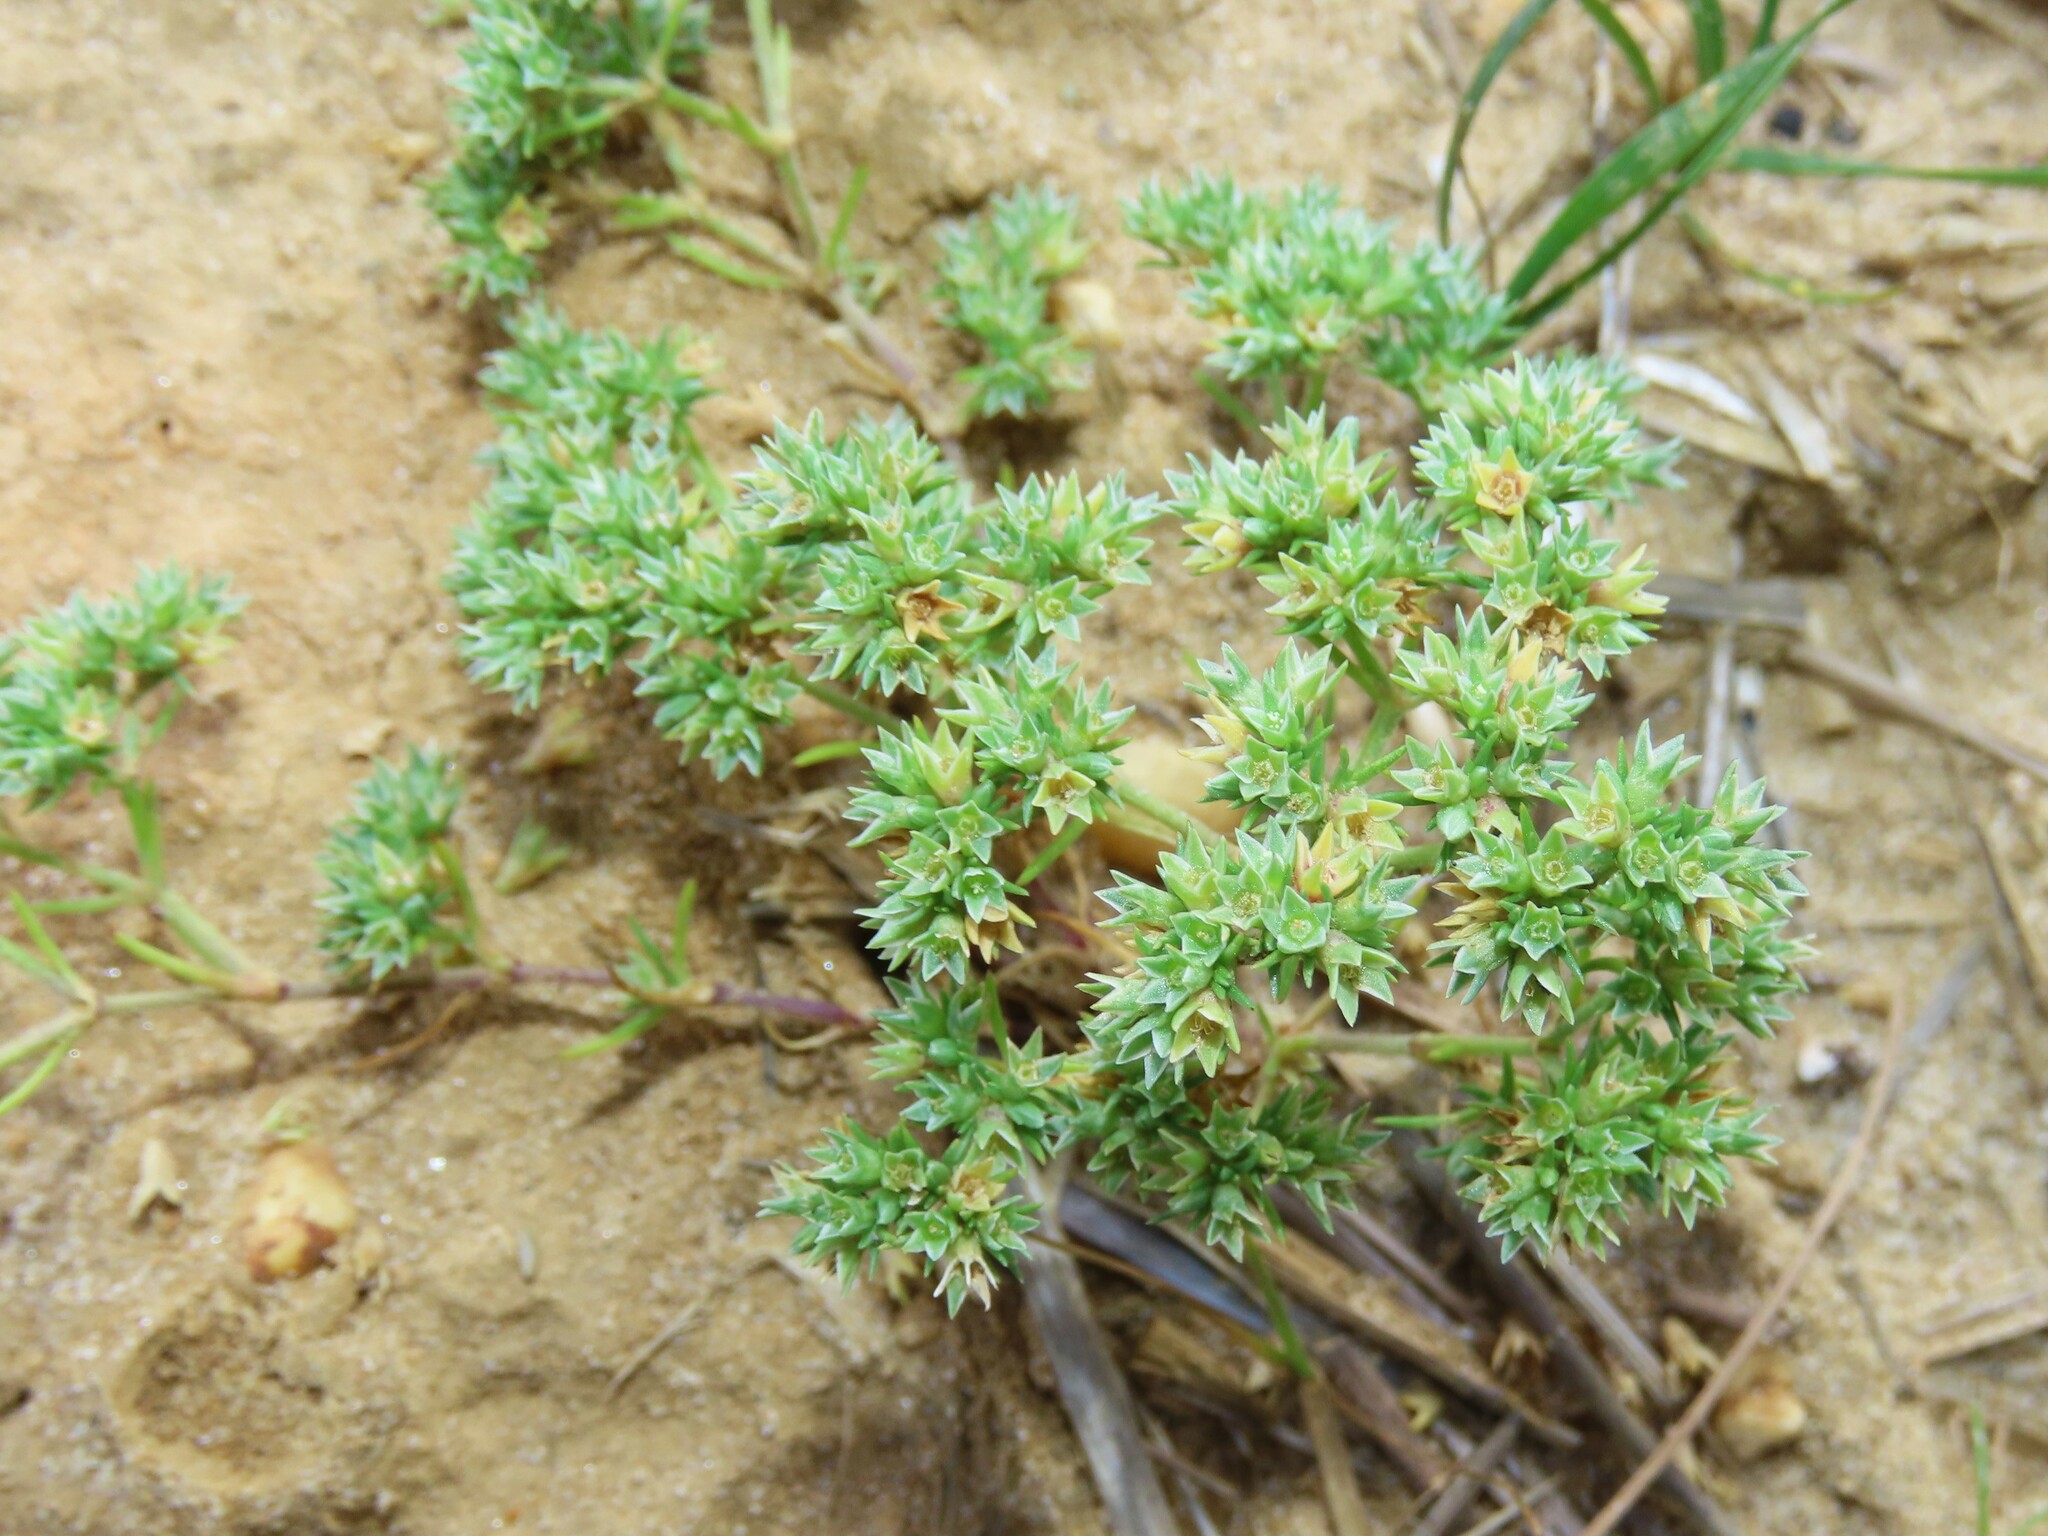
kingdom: Plantae
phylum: Tracheophyta
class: Magnoliopsida
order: Caryophyllales
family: Caryophyllaceae
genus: Scleranthus
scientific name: Scleranthus annuus
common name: Annual knawel
